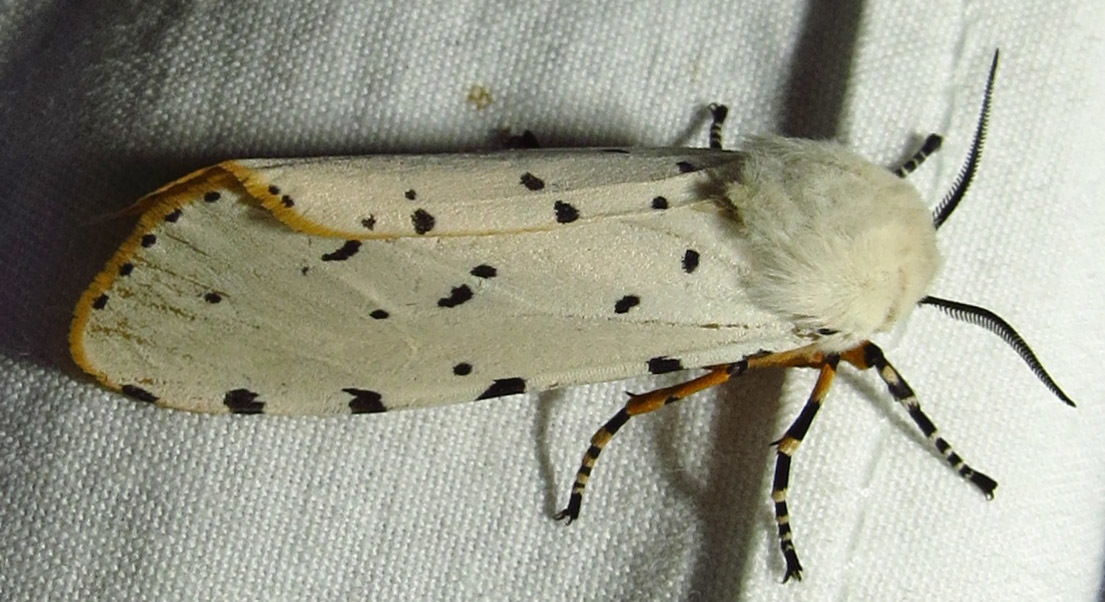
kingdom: Animalia
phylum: Arthropoda
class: Insecta
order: Lepidoptera
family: Erebidae
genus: Estigmene
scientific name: Estigmene acrea
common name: Salt marsh moth
